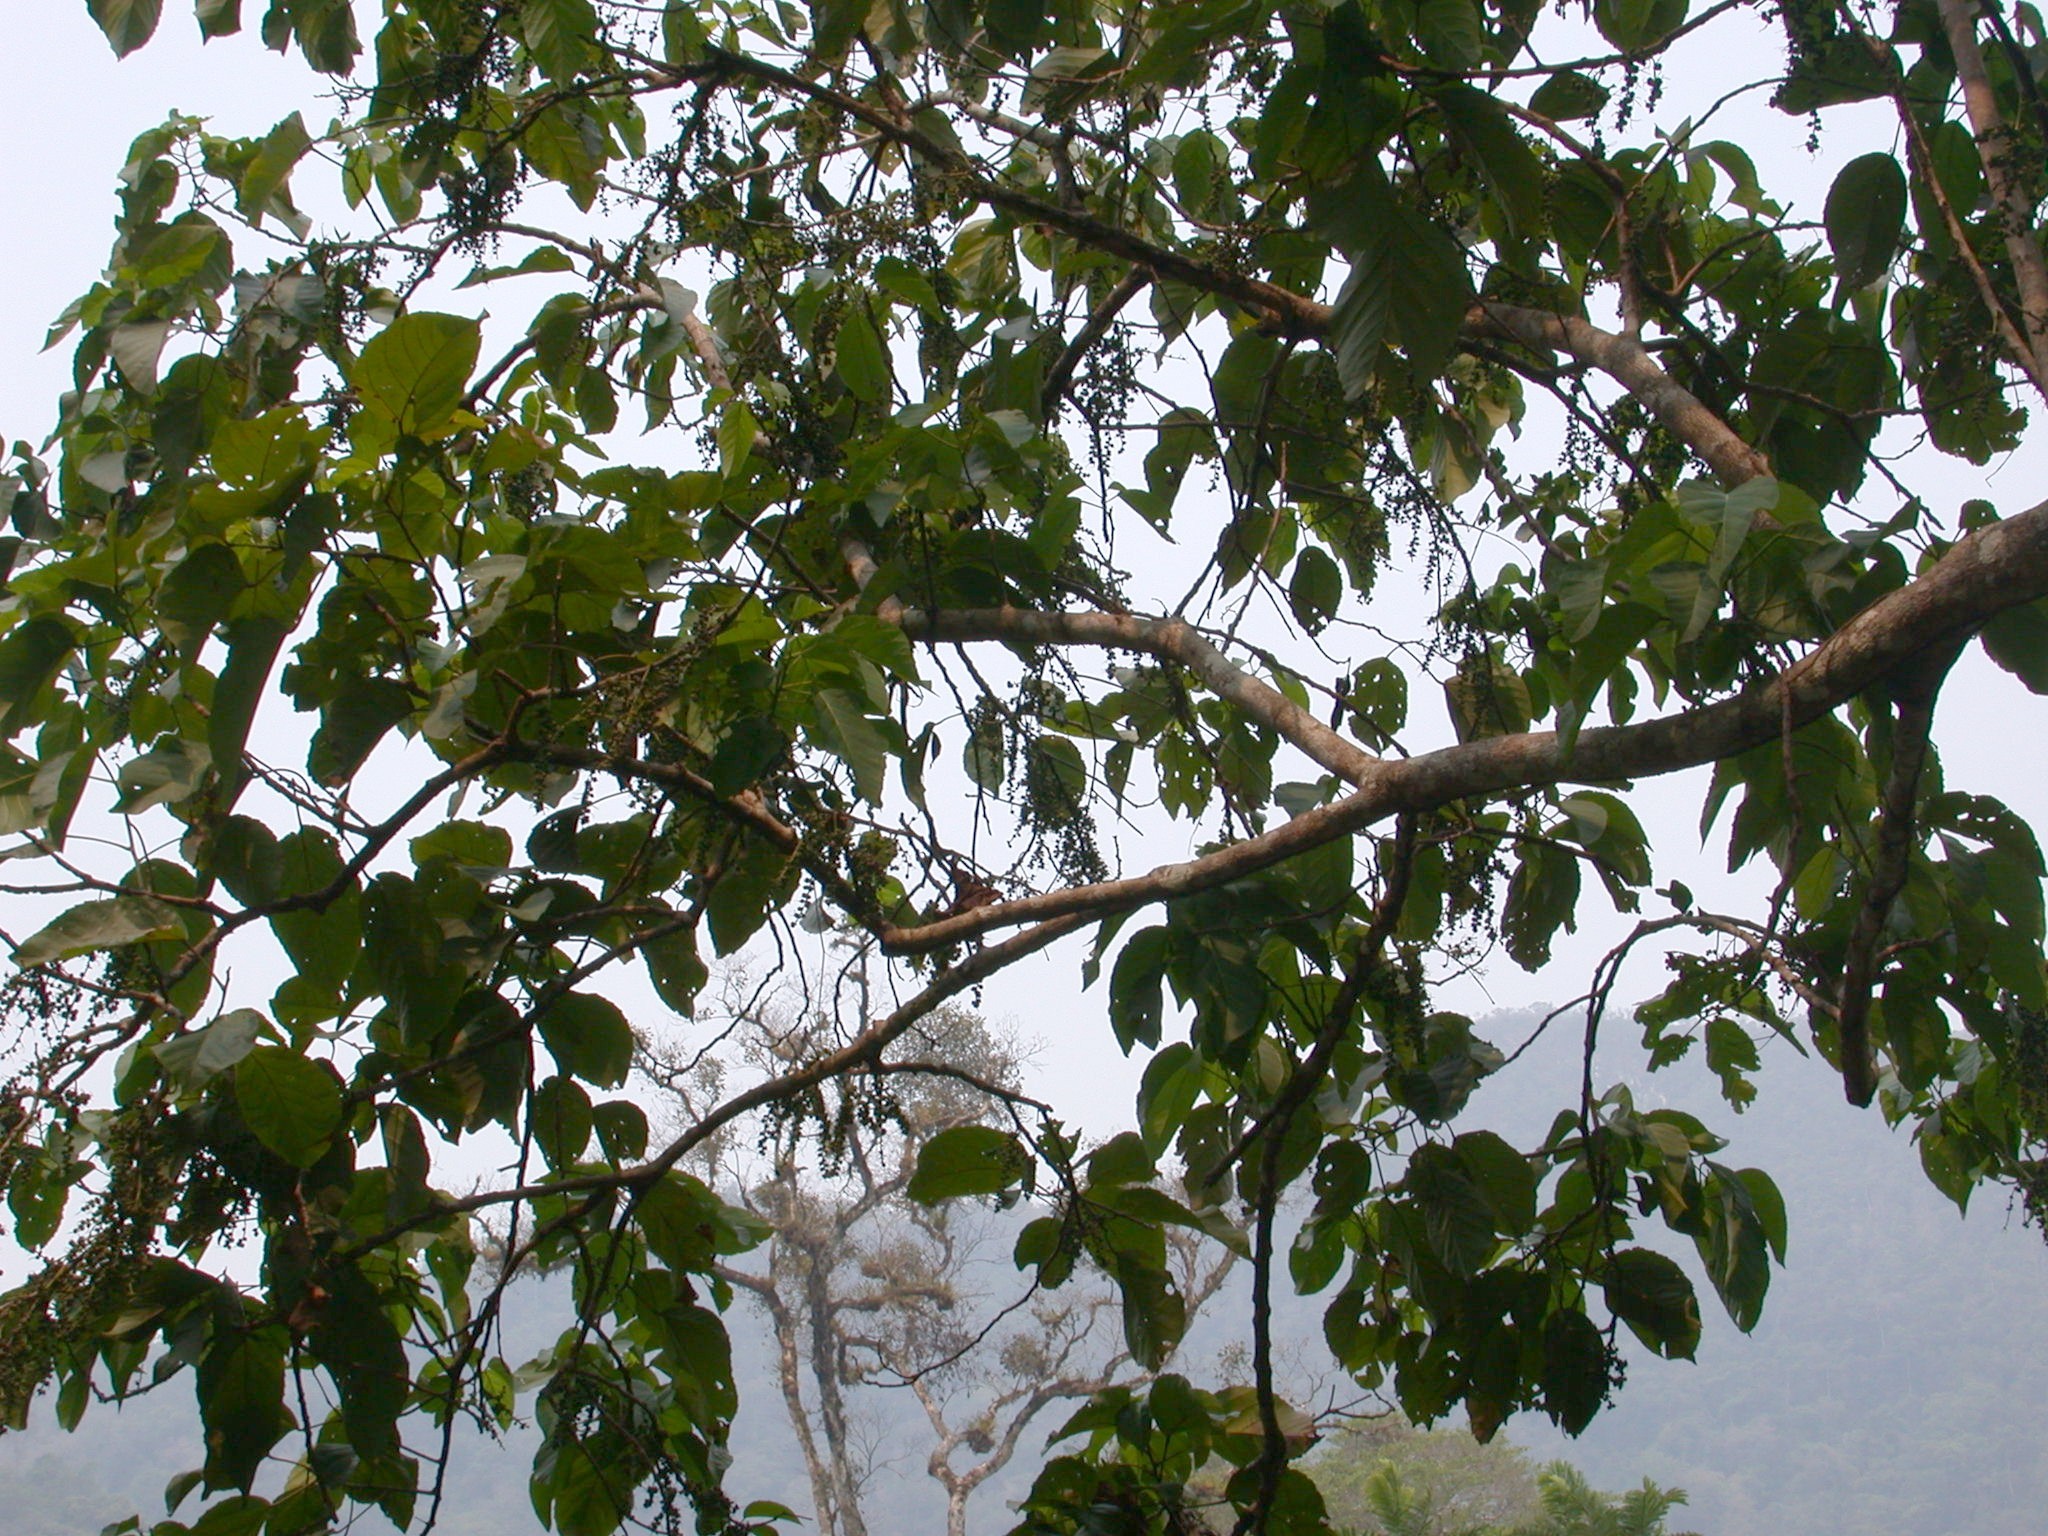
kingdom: Plantae
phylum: Tracheophyta
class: Magnoliopsida
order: Malpighiales
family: Euphorbiaceae
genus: Alchornea
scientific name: Alchornea latifolia
